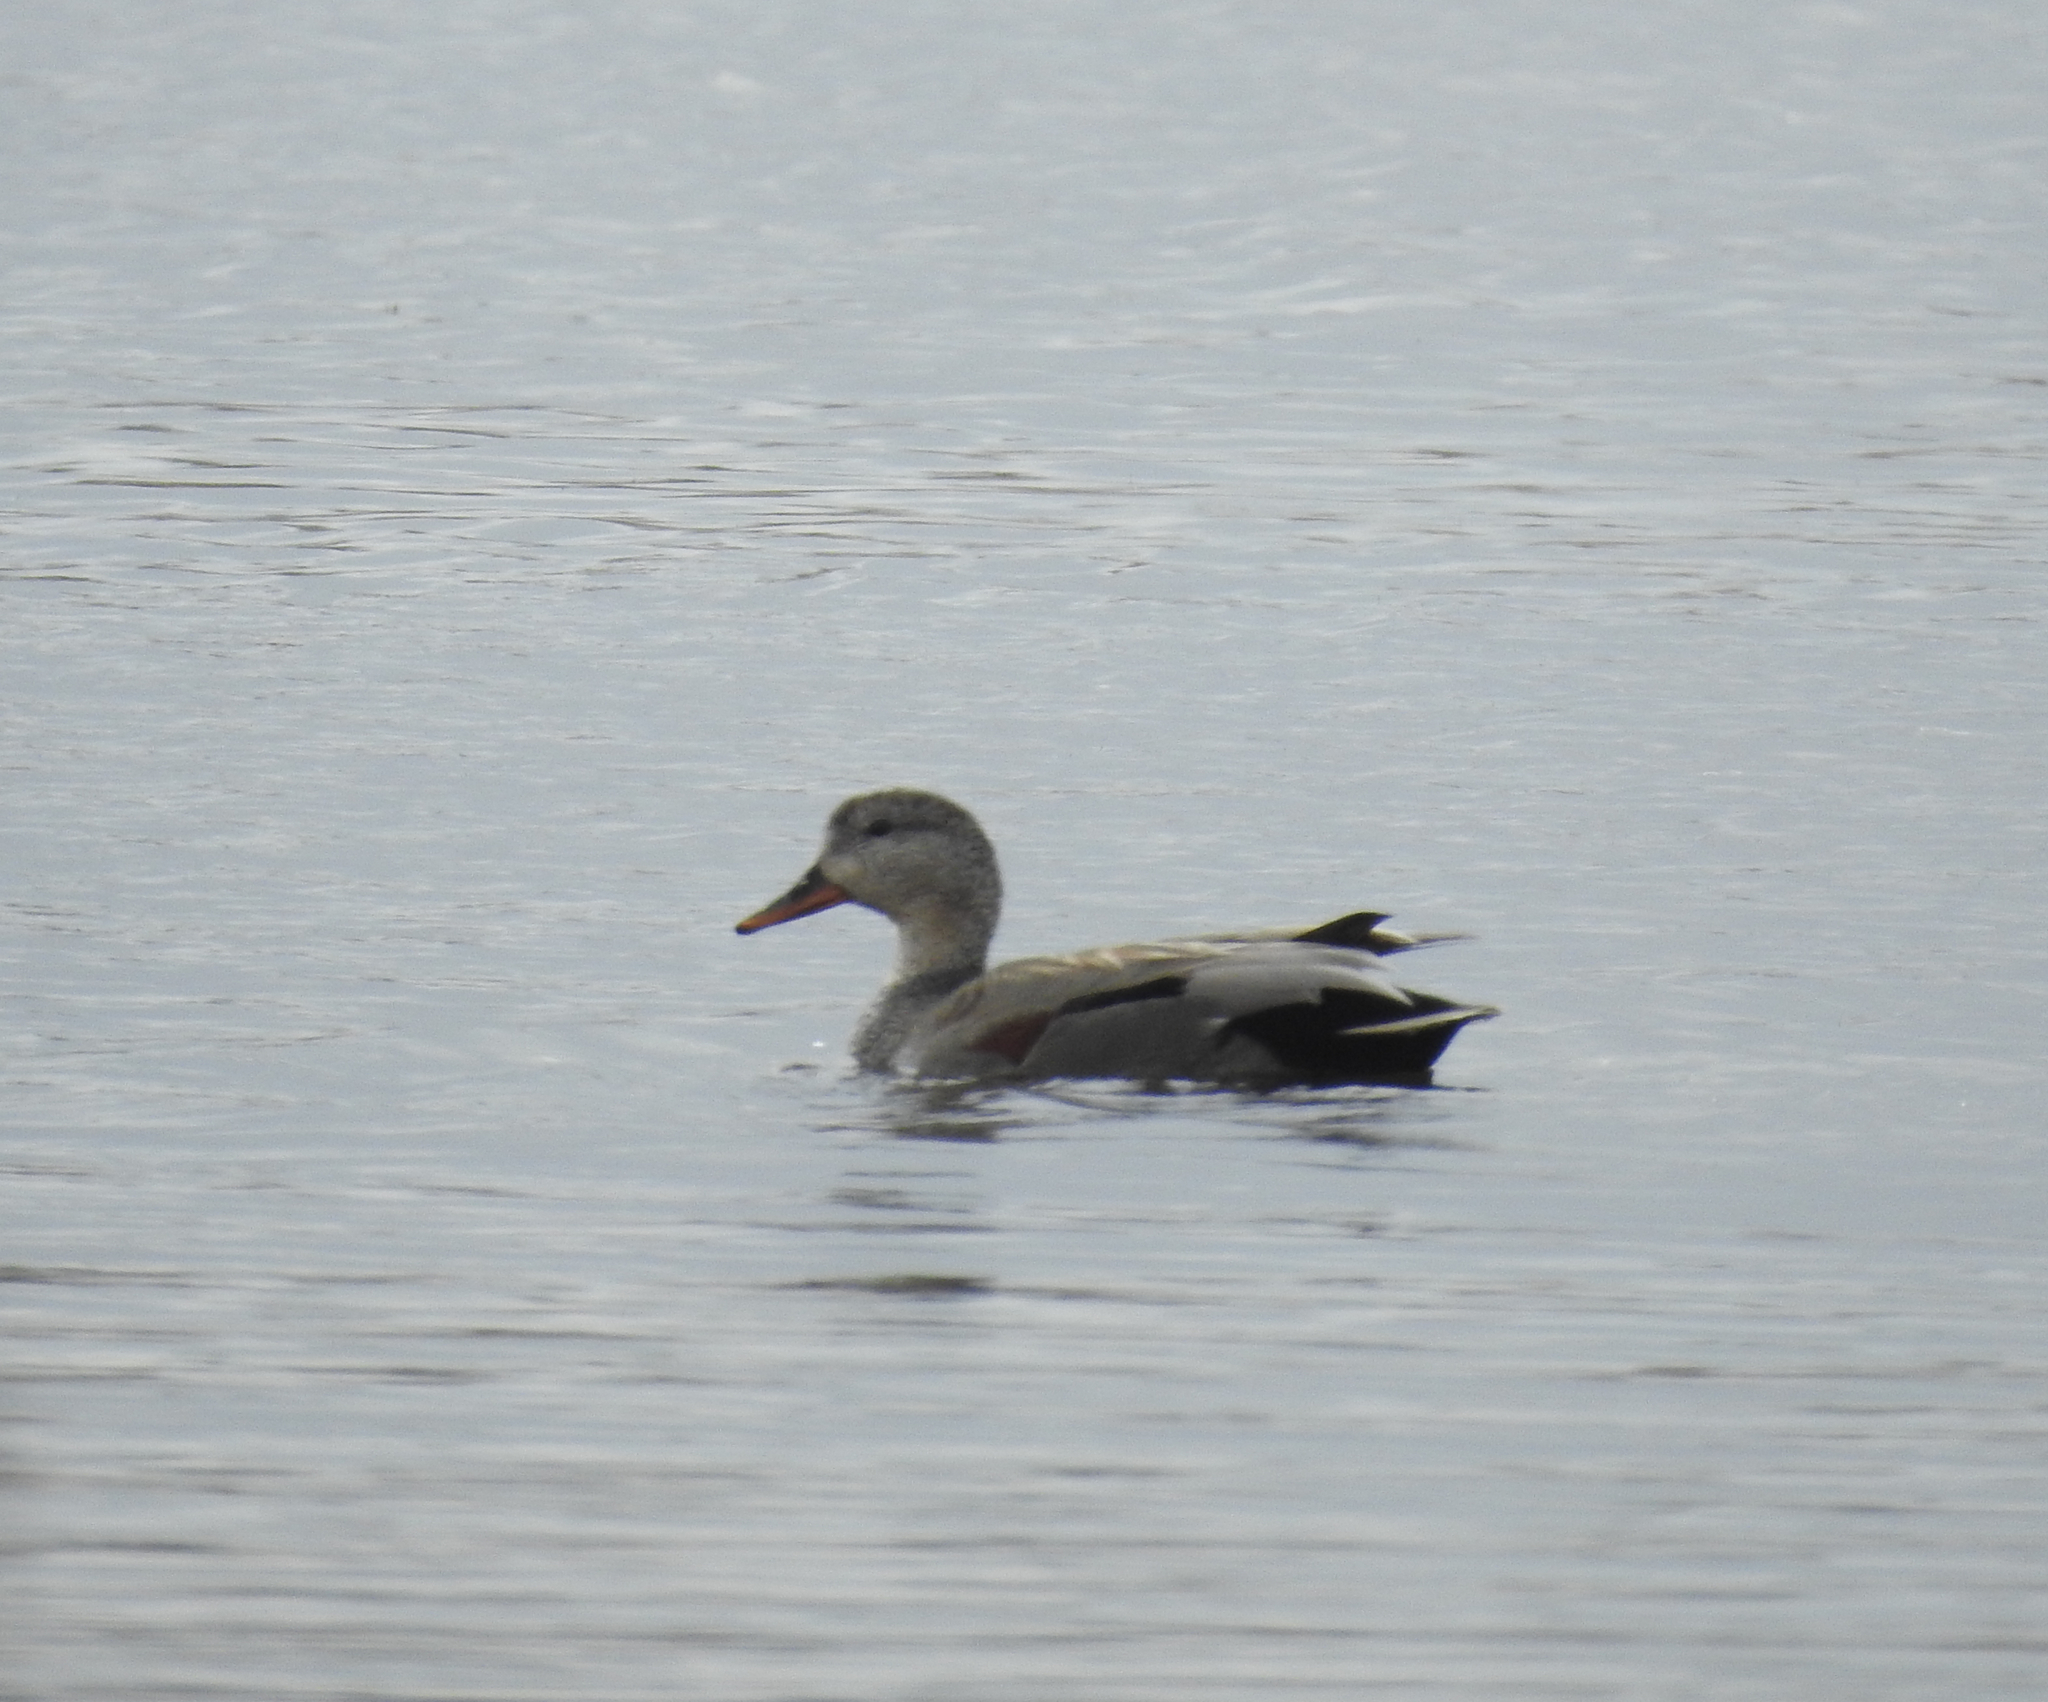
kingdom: Animalia
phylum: Chordata
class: Aves
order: Anseriformes
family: Anatidae
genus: Mareca
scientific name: Mareca strepera
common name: Gadwall
